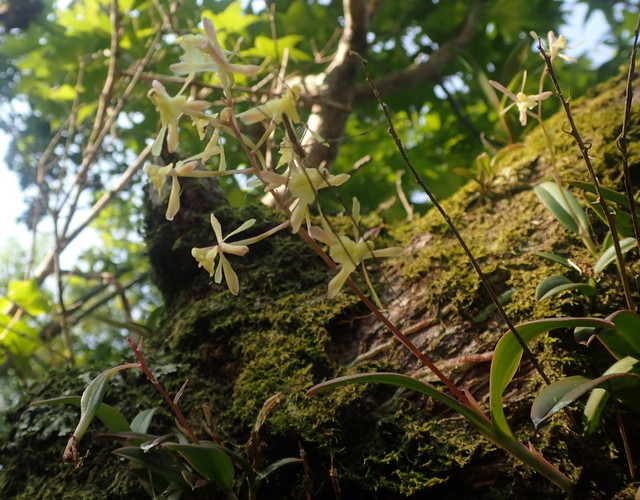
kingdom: Plantae
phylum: Tracheophyta
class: Liliopsida
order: Asparagales
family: Orchidaceae
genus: Epidendrum
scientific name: Epidendrum conopseum
